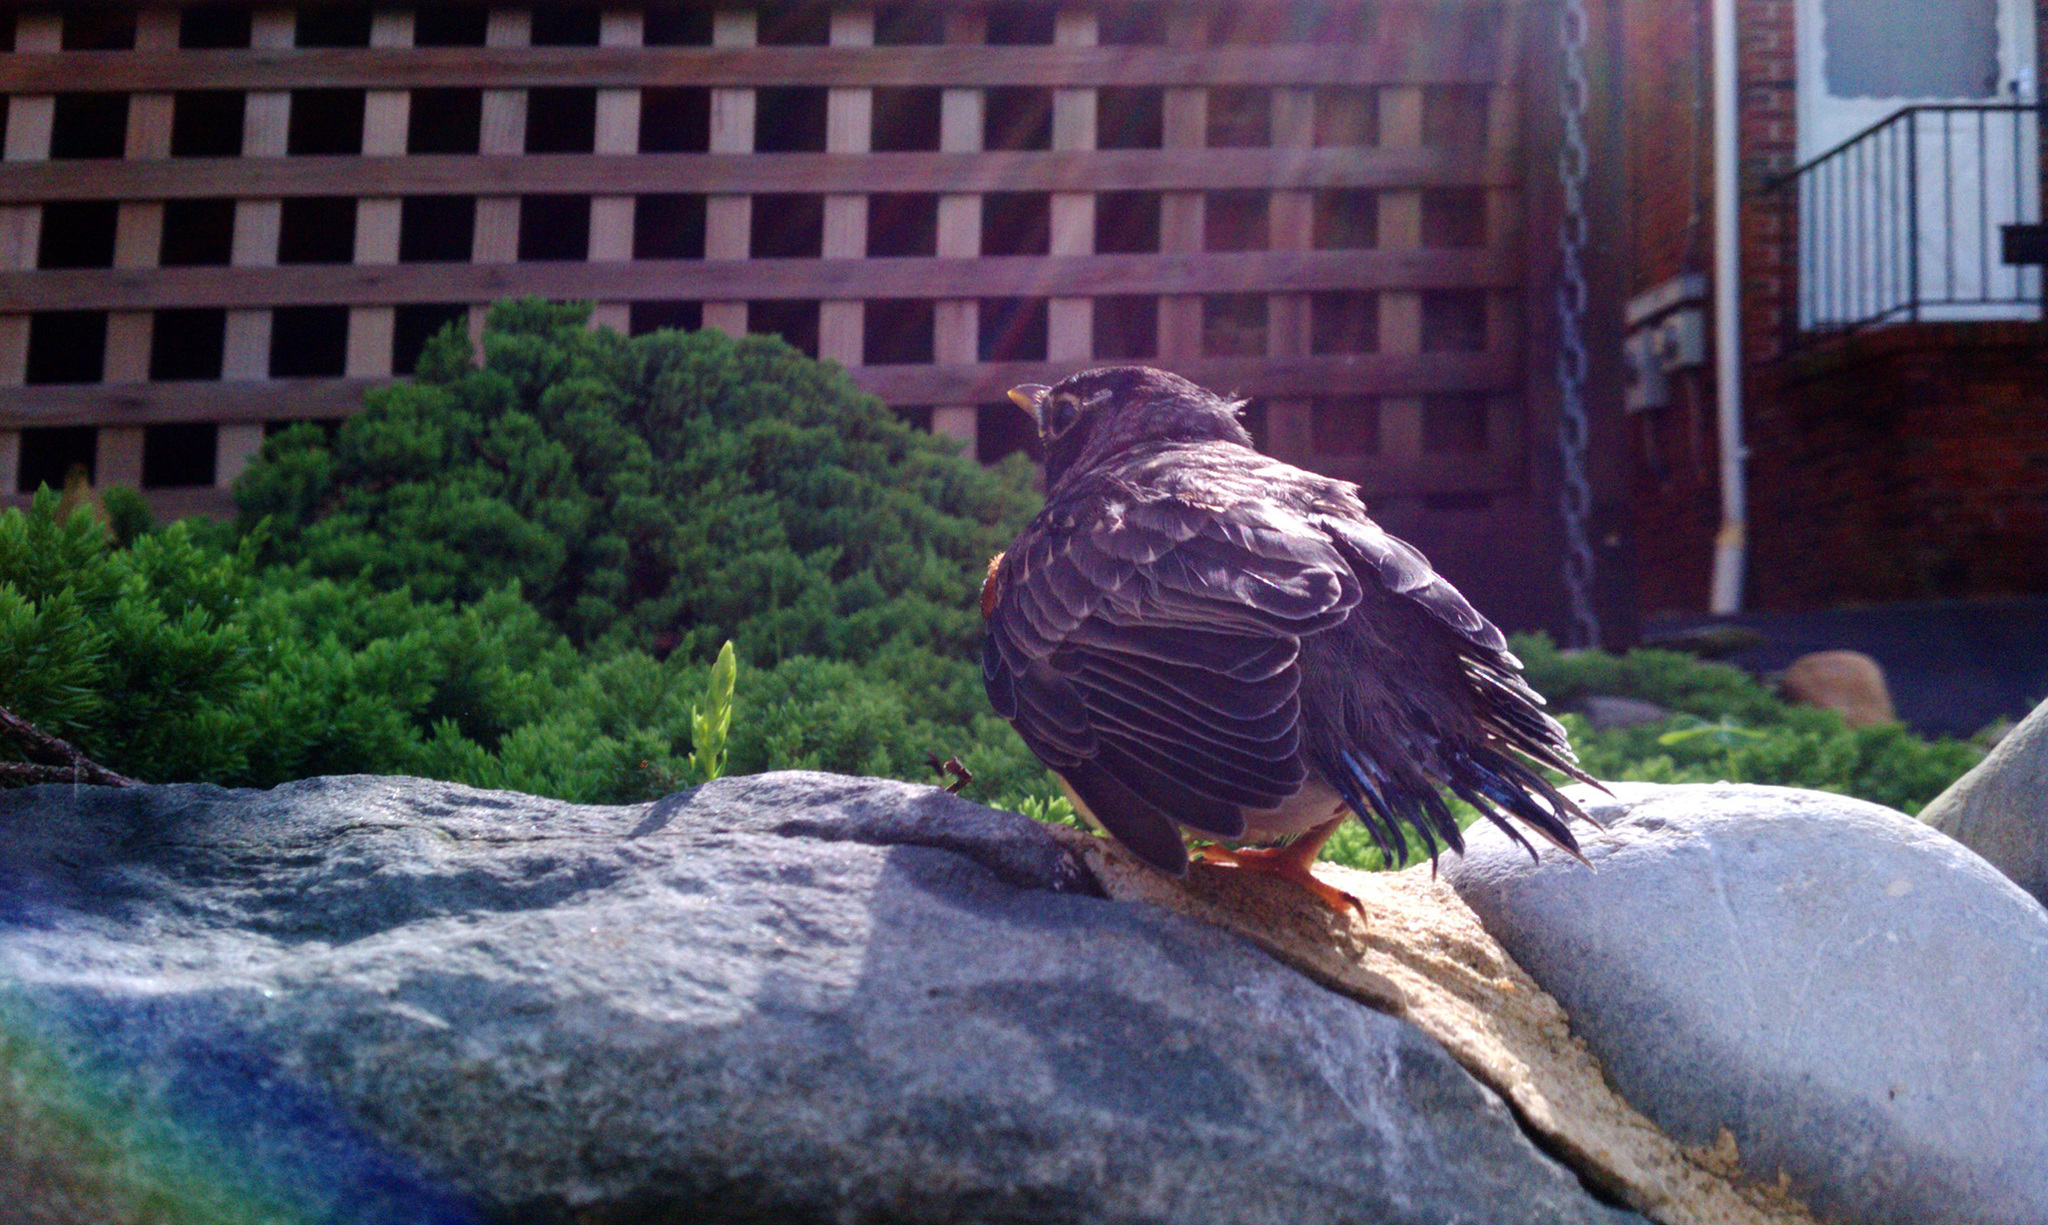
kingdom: Animalia
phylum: Chordata
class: Aves
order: Passeriformes
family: Turdidae
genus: Turdus
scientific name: Turdus migratorius
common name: American robin
